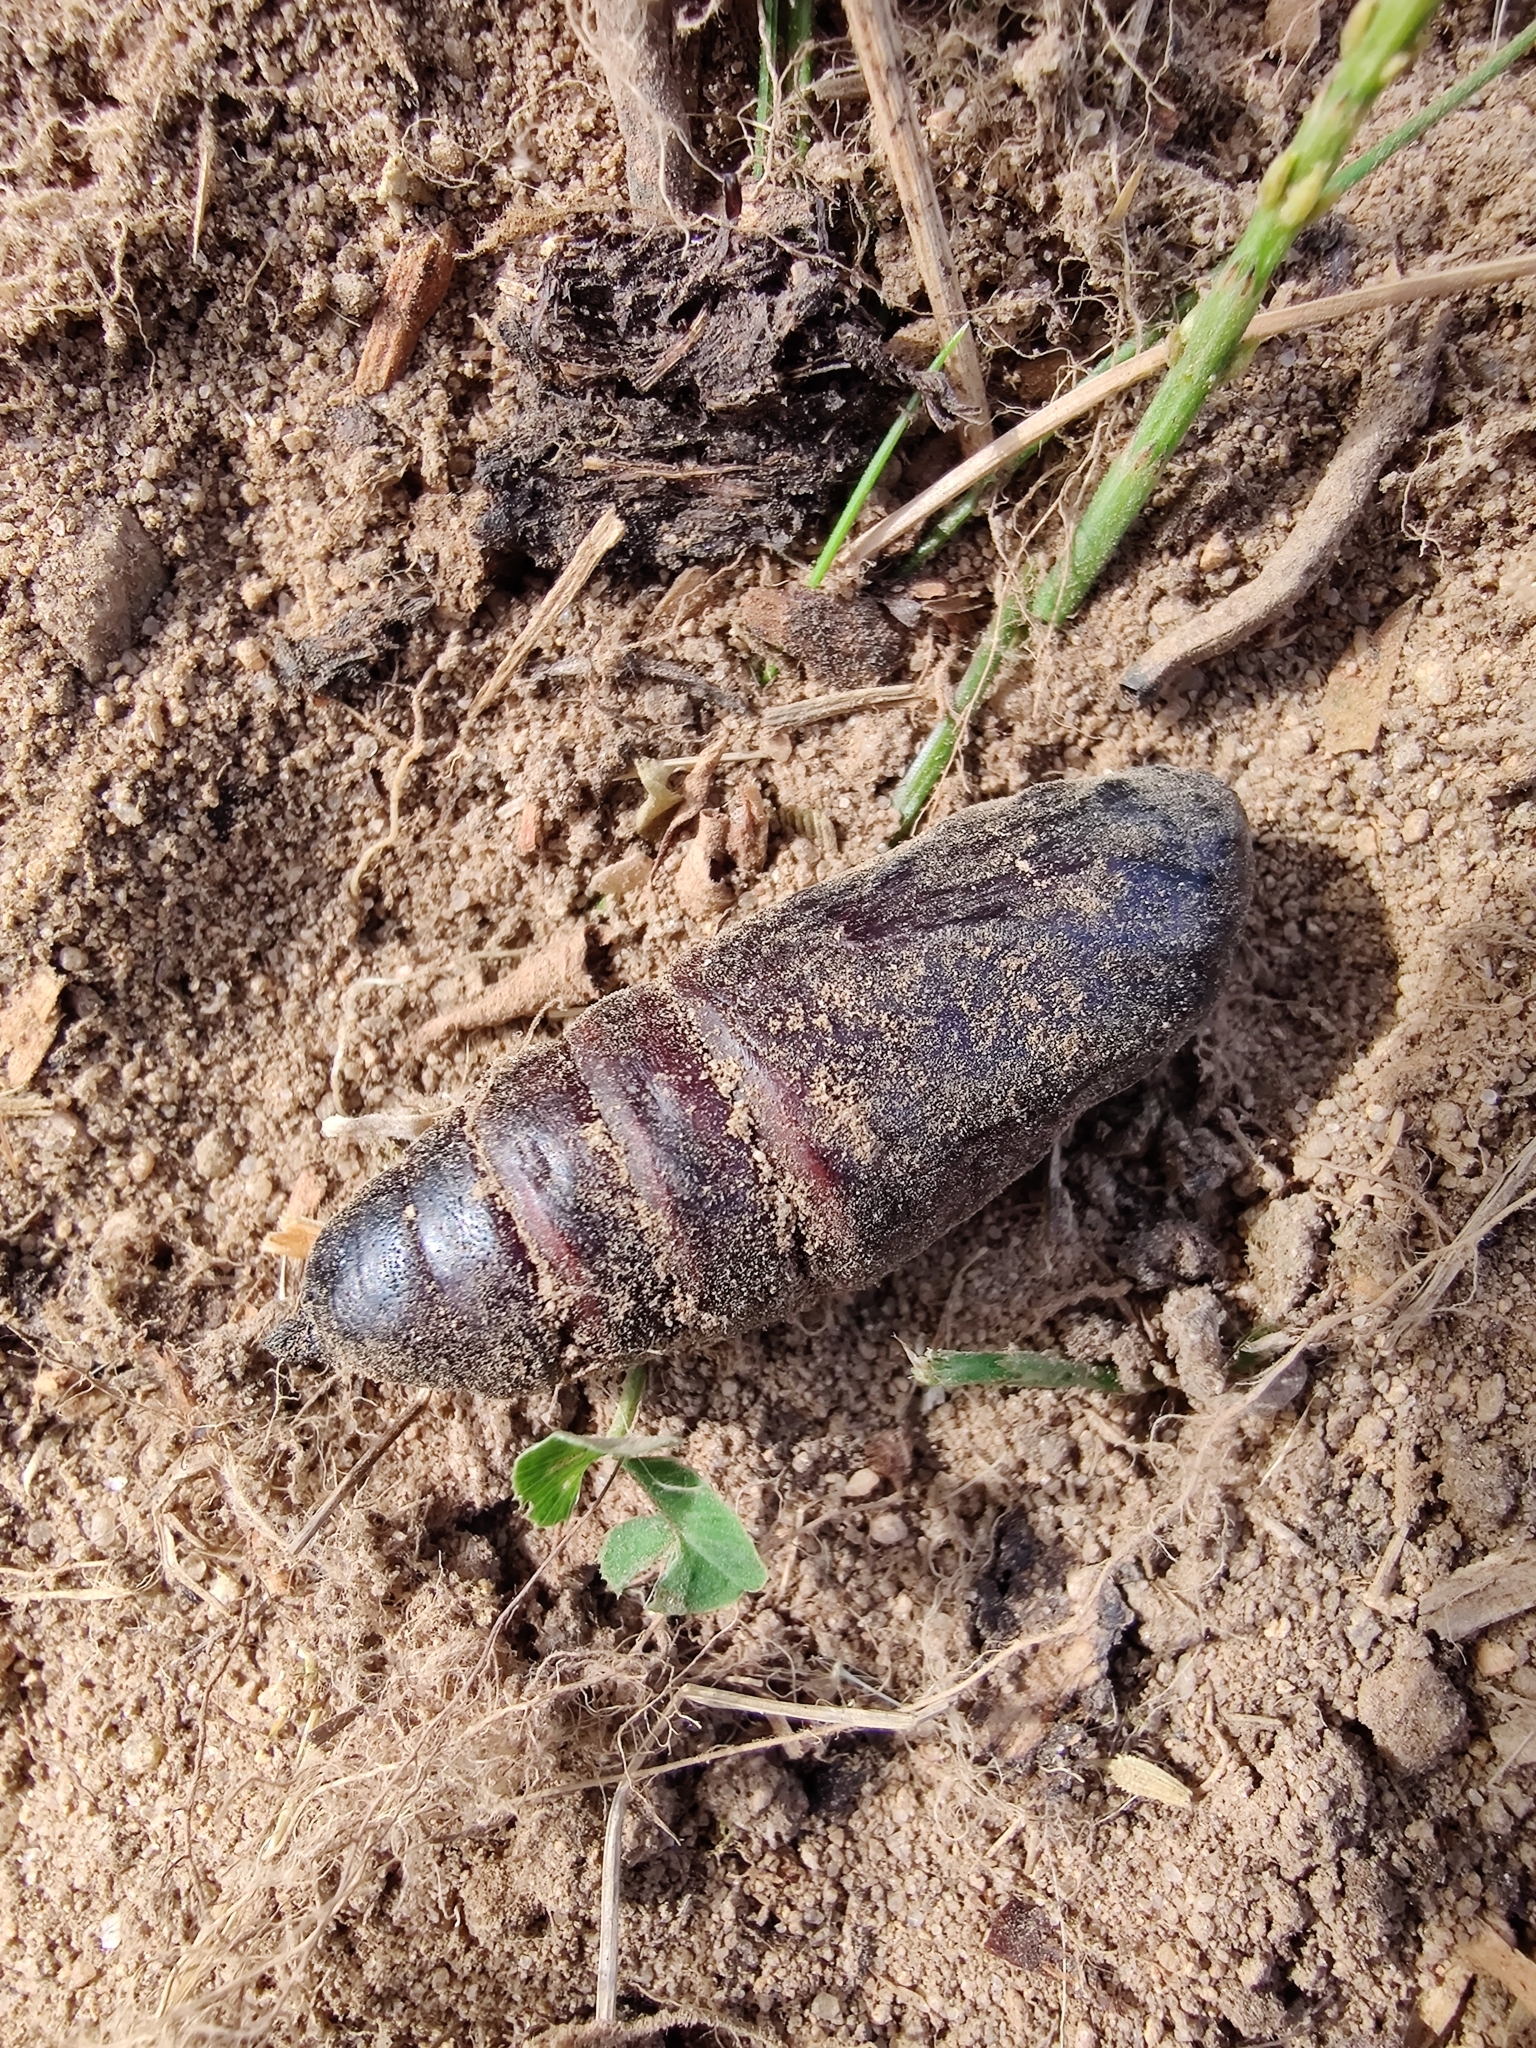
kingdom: Animalia
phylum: Arthropoda
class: Insecta
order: Lepidoptera
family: Sphingidae
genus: Smerinthus
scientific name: Smerinthus ocellata
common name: Eyed hawk-moth
